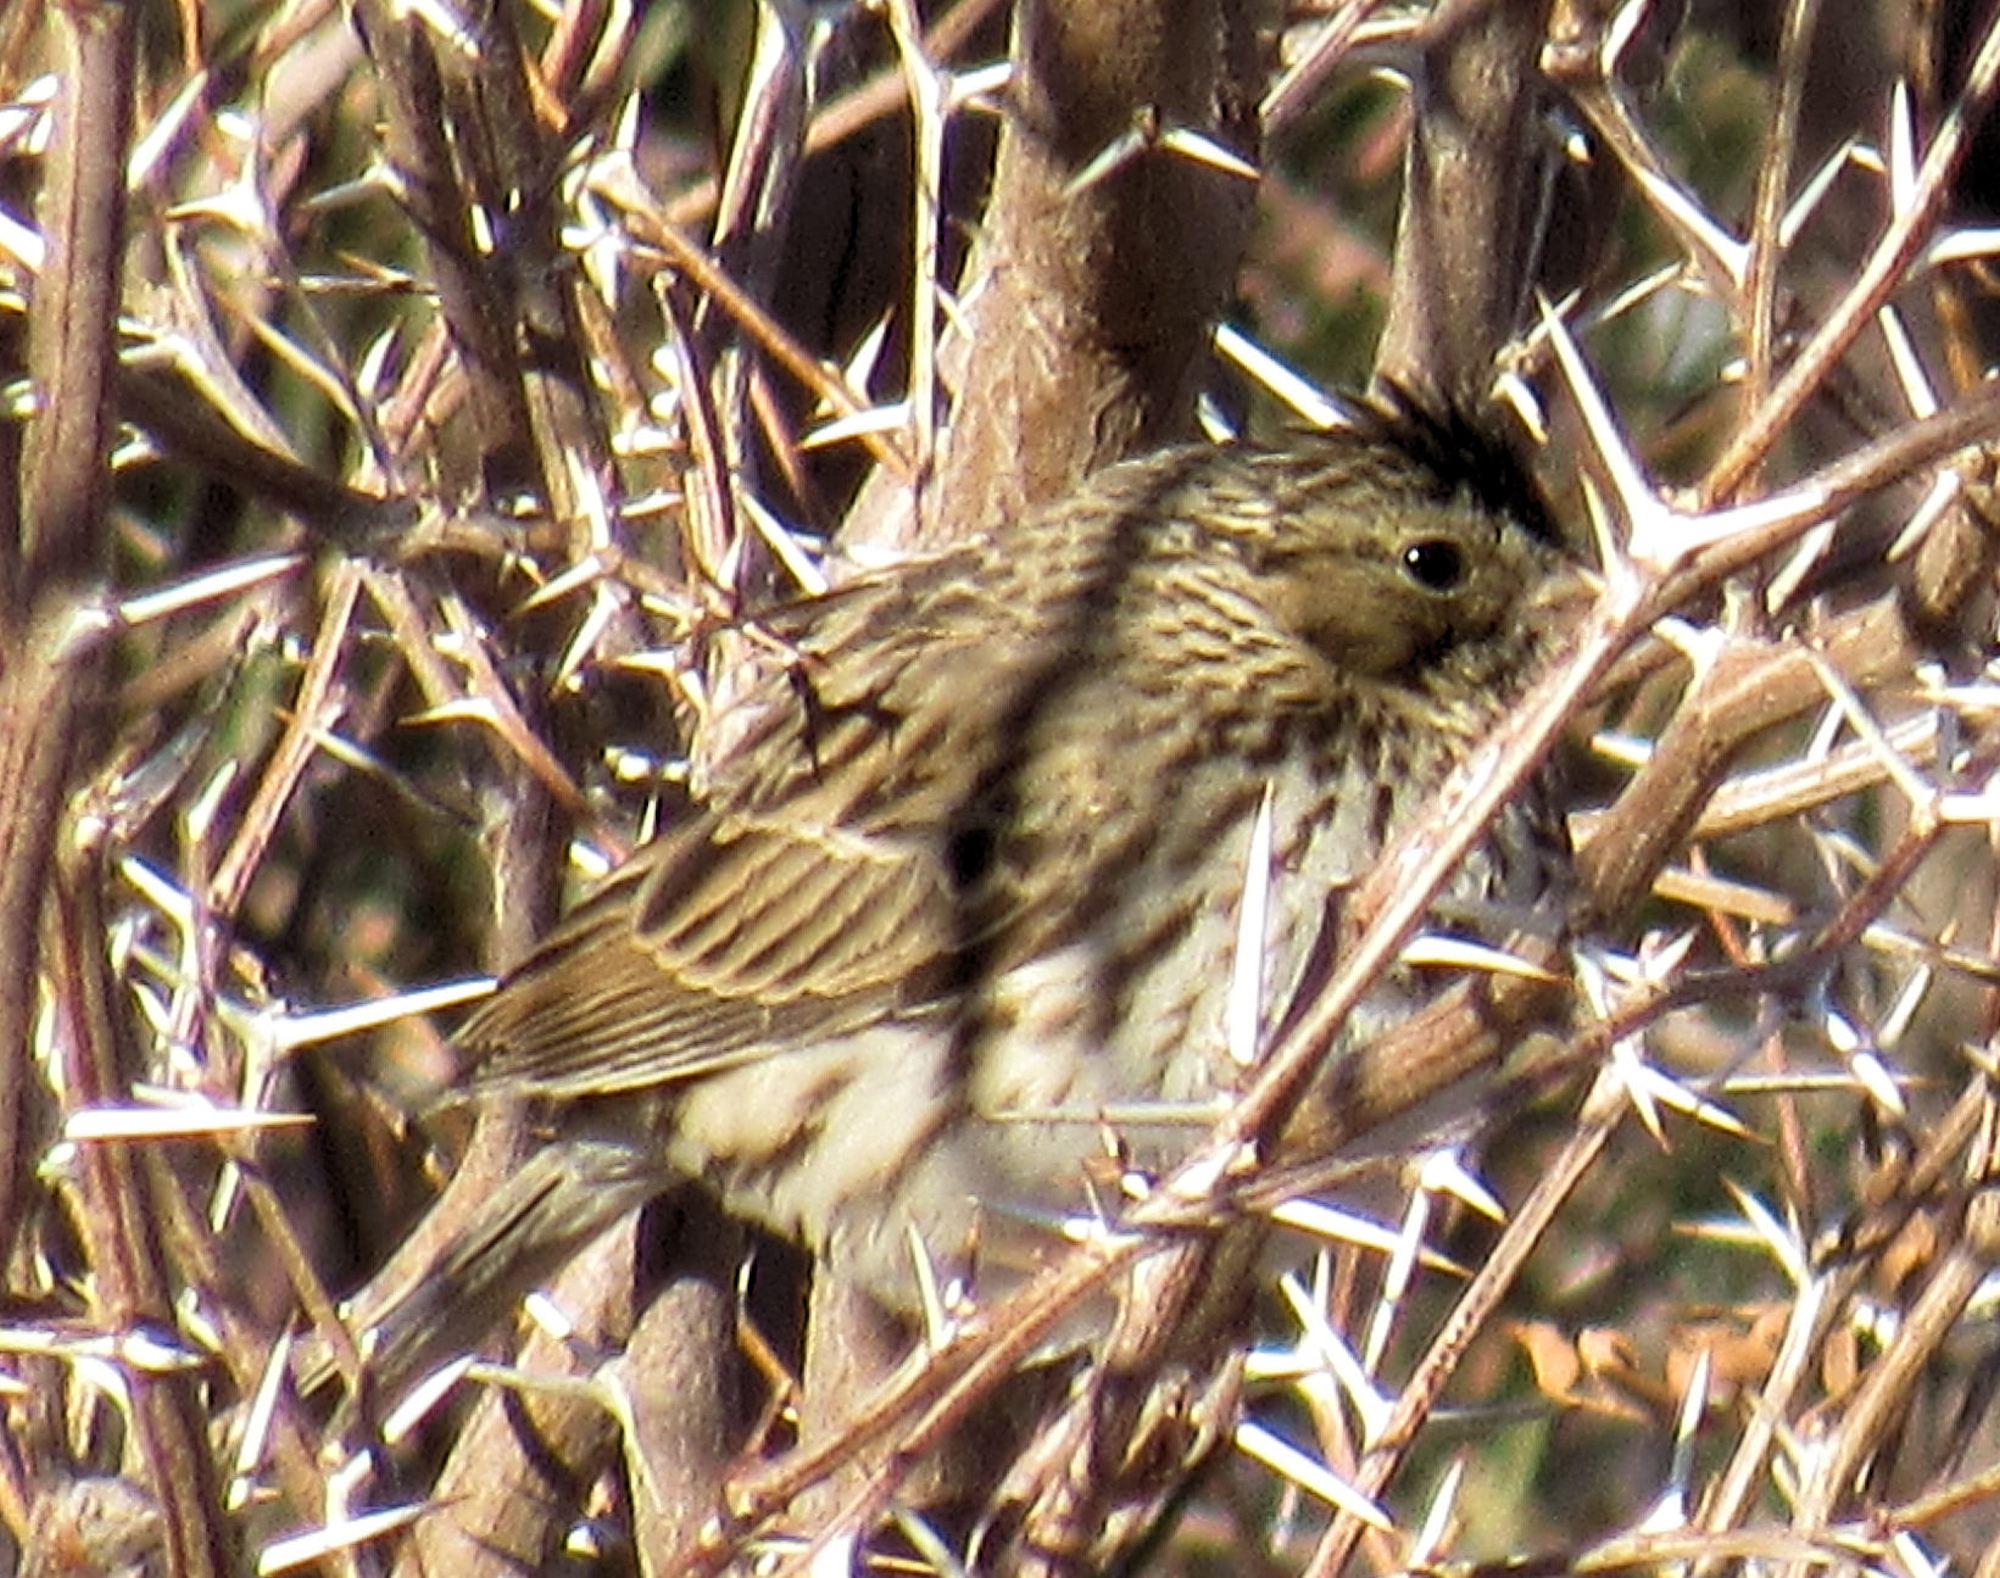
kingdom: Animalia
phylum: Chordata
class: Aves
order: Passeriformes
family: Passerellidae
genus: Passerculus
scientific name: Passerculus sandwichensis
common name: Savannah sparrow
